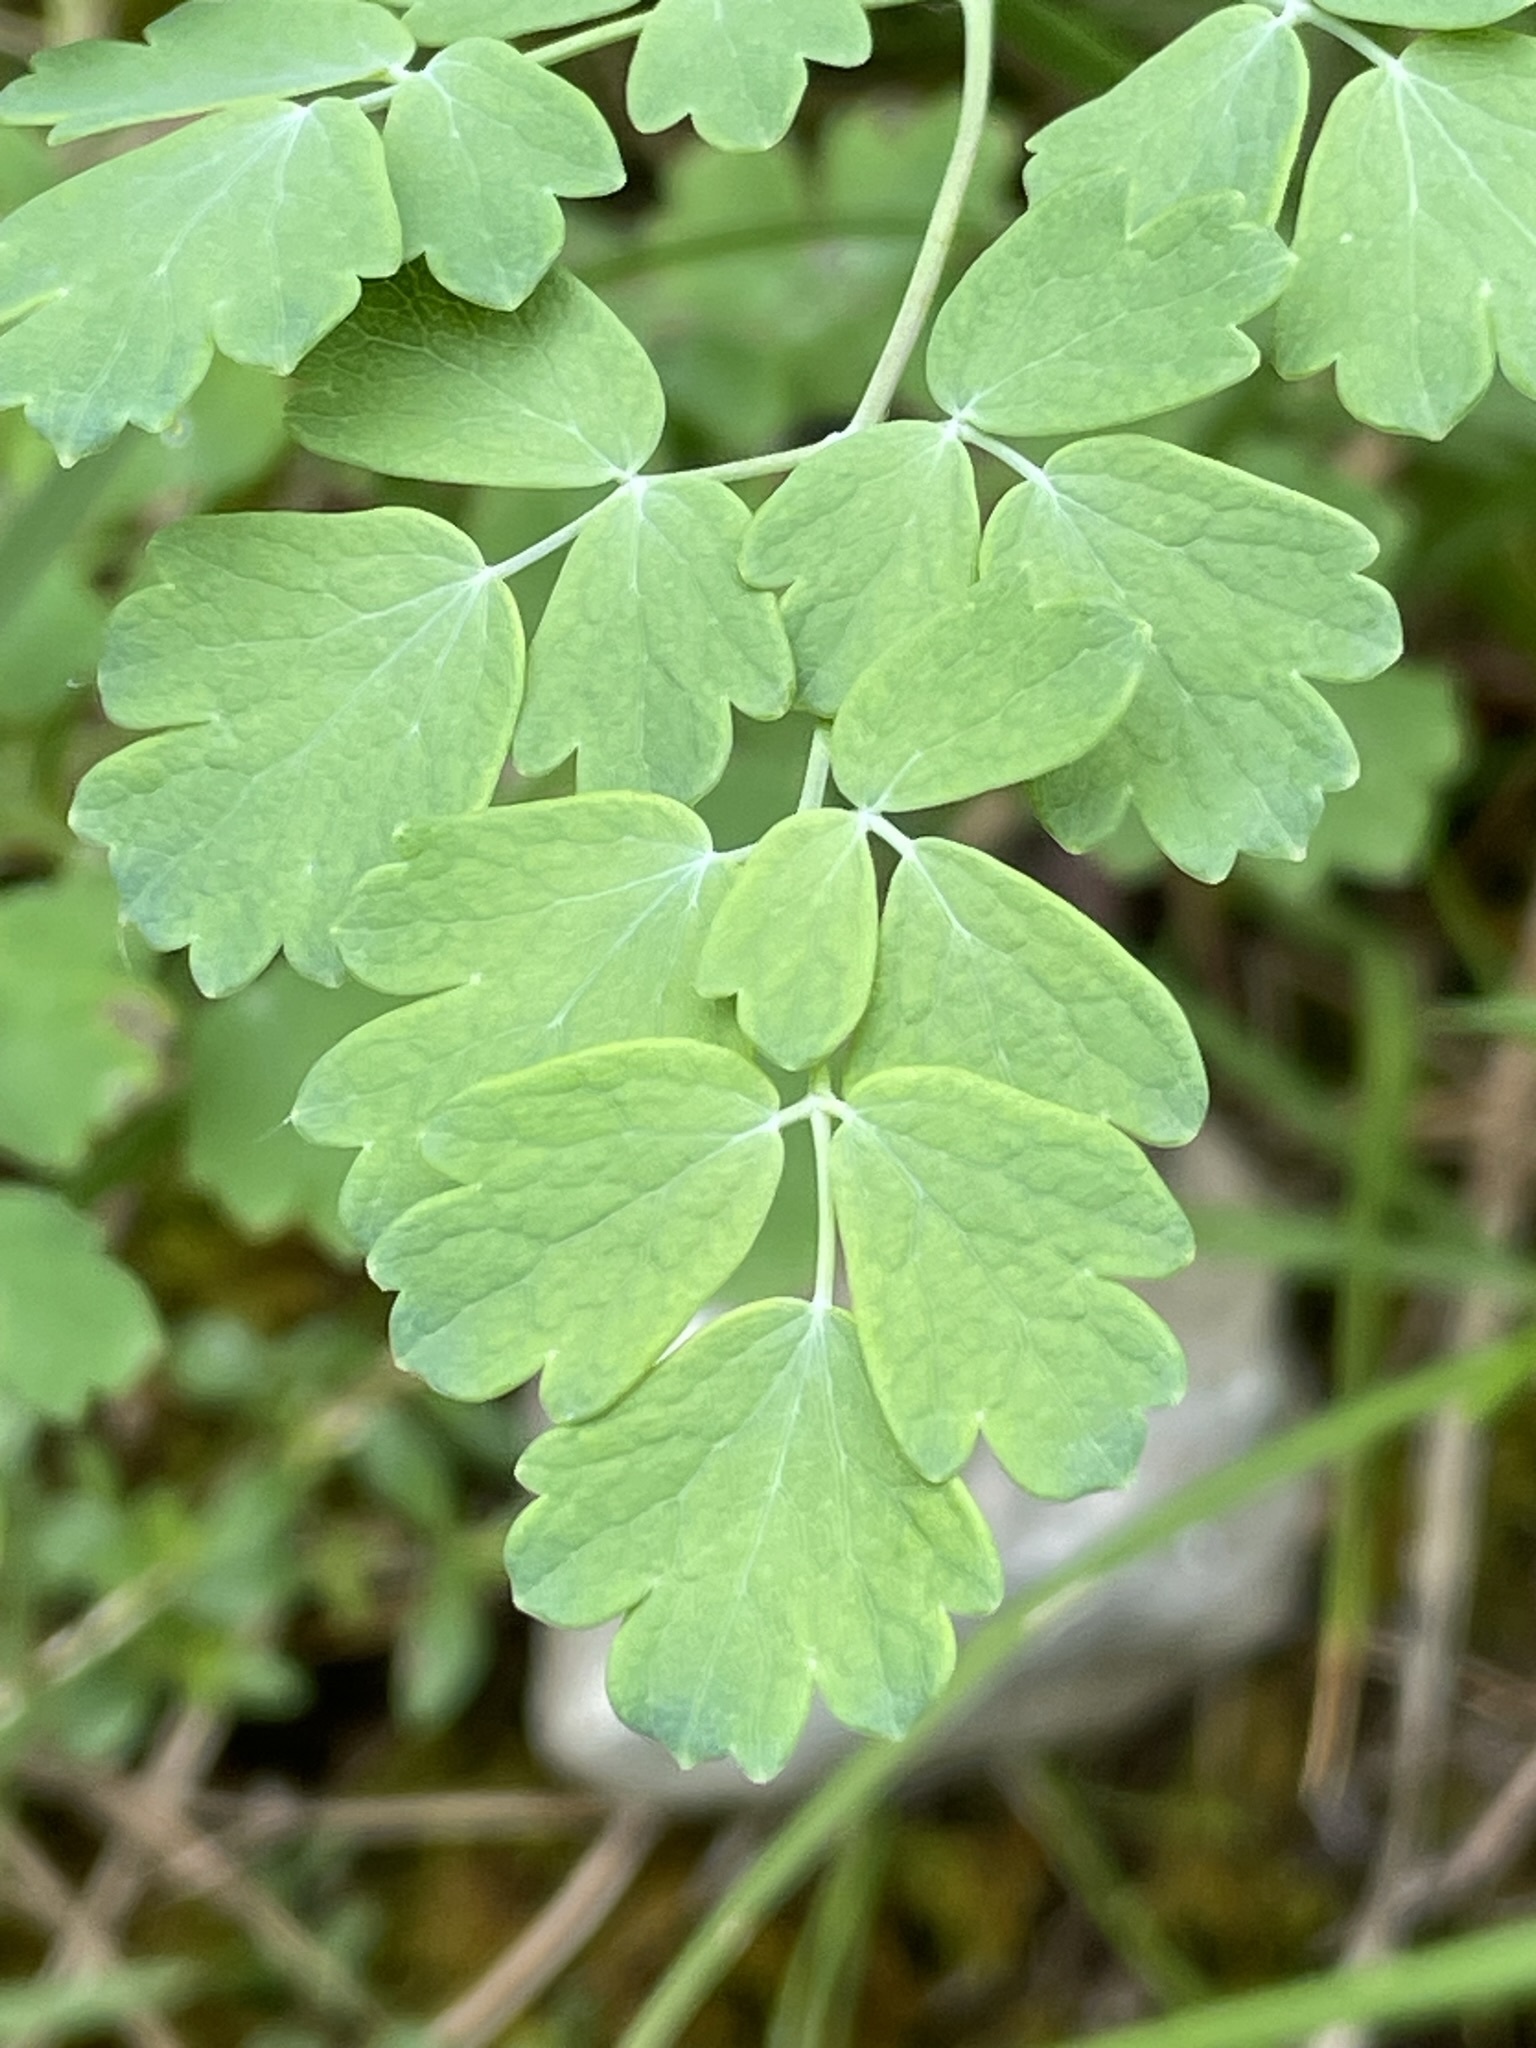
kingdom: Plantae
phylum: Tracheophyta
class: Magnoliopsida
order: Ranunculales
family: Ranunculaceae
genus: Thalictrum
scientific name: Thalictrum minus
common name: Lesser meadow-rue
